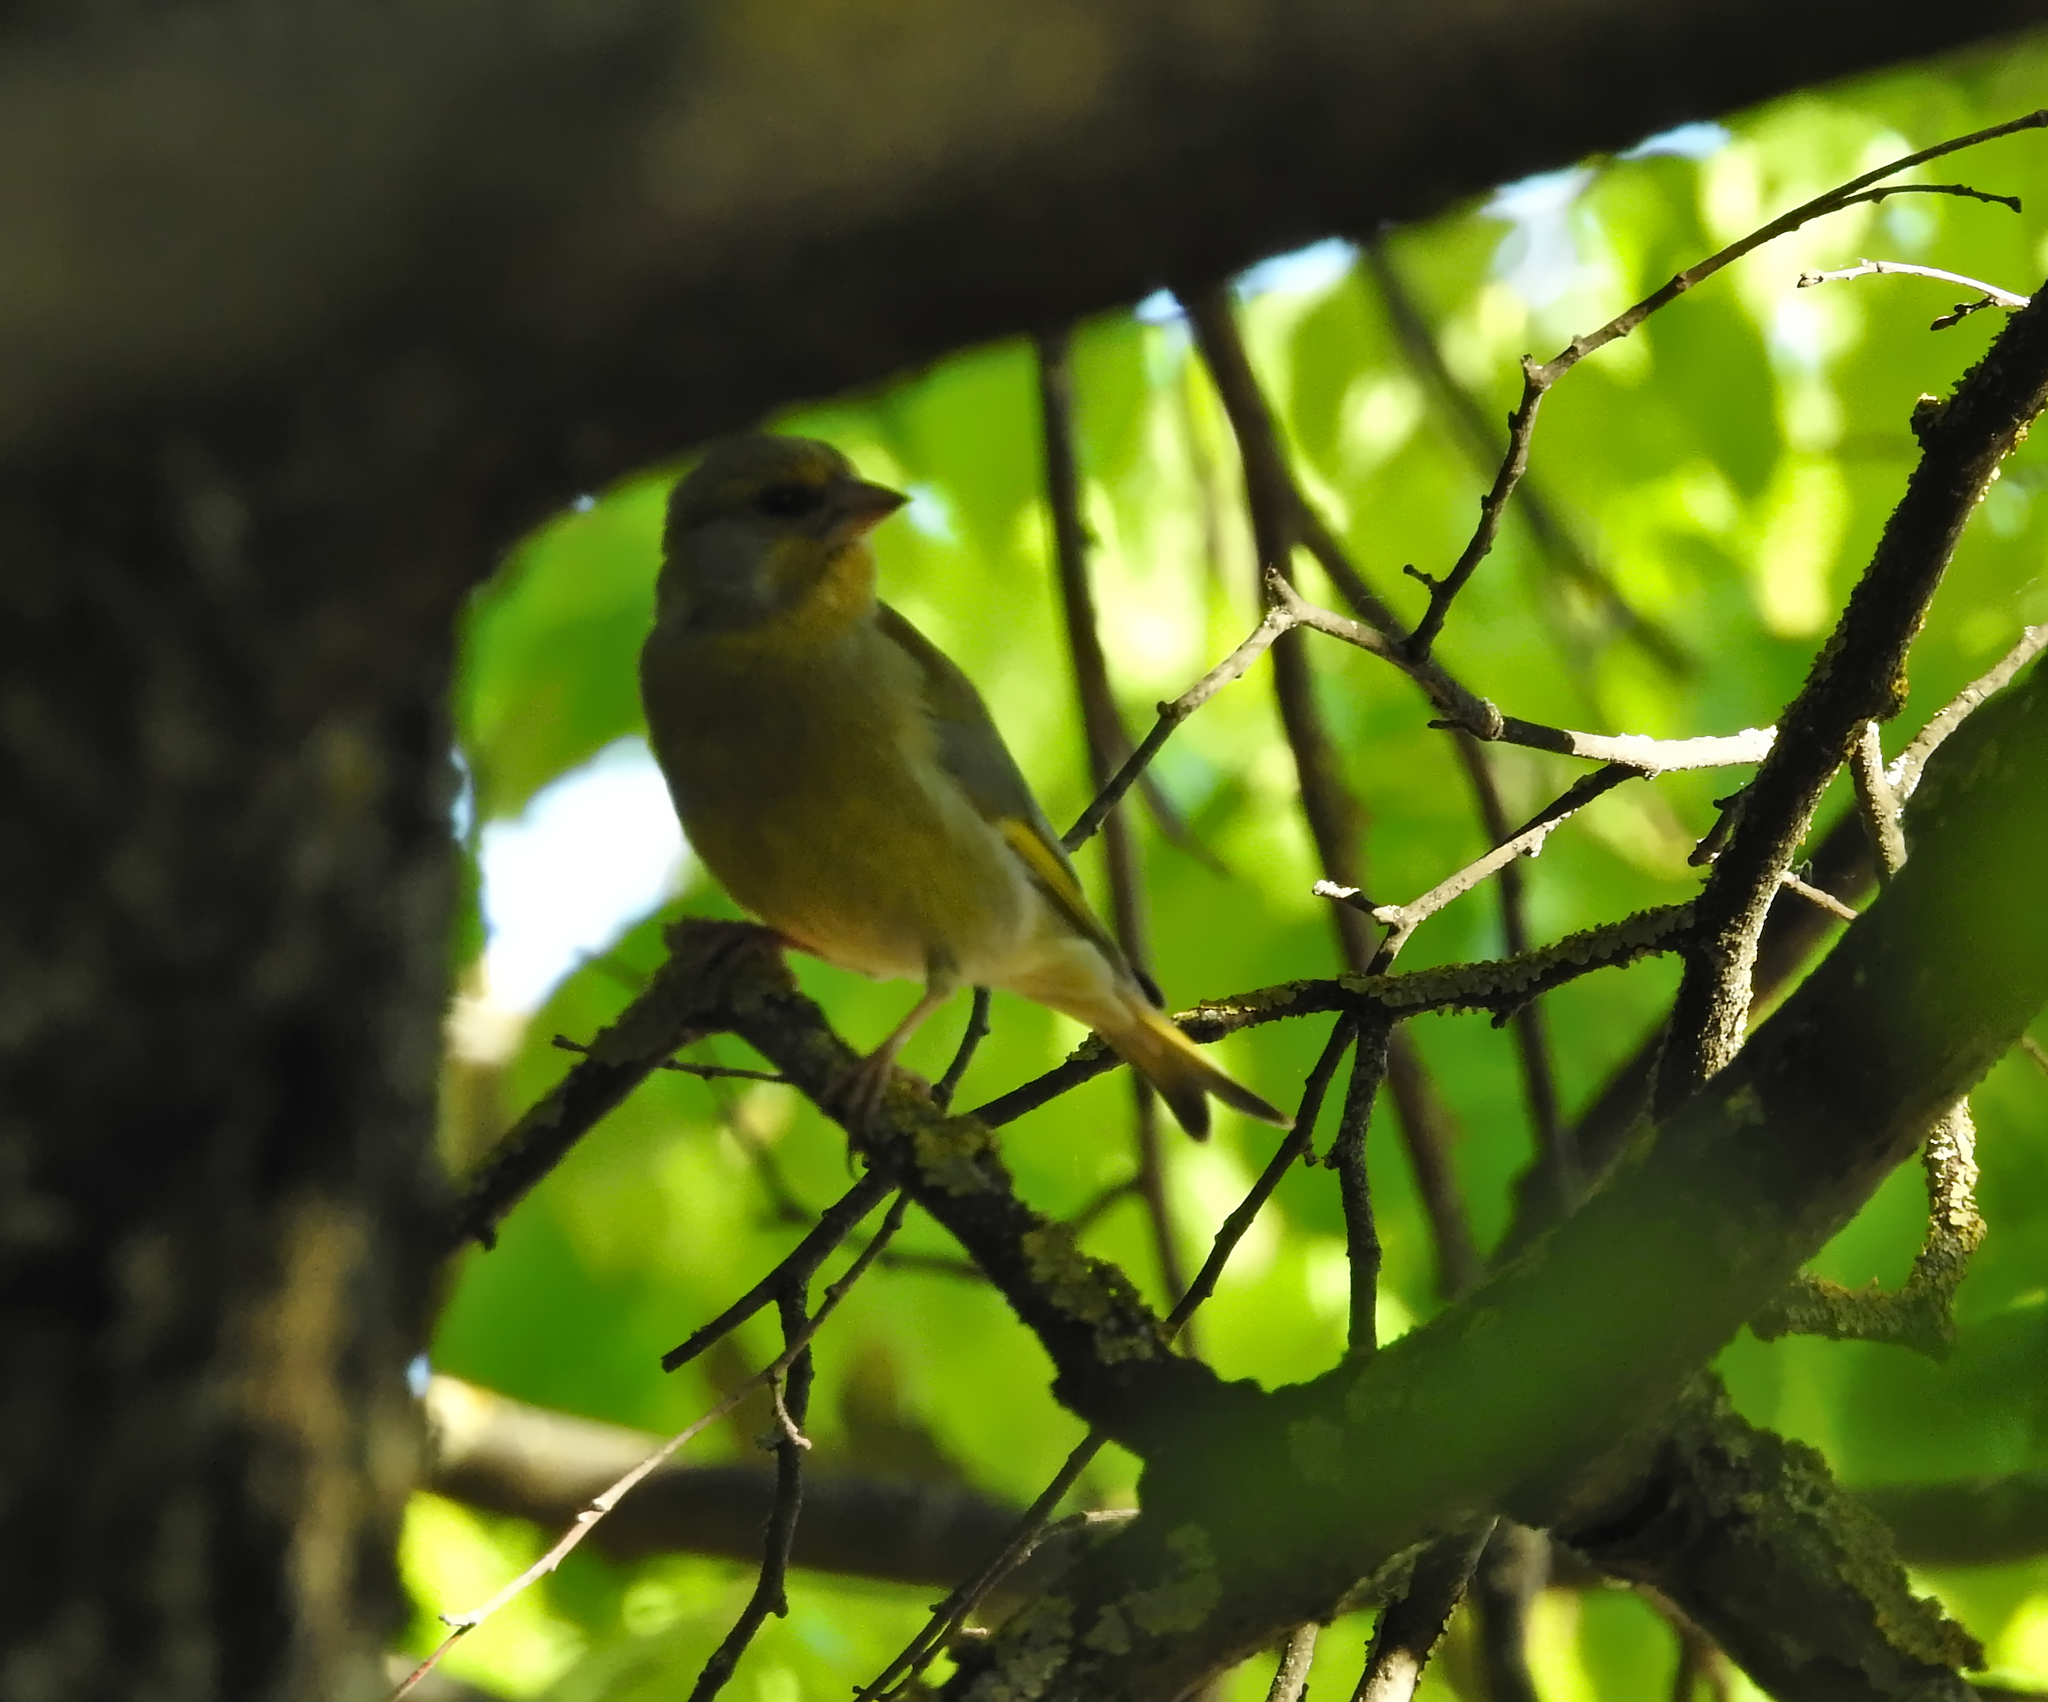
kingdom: Plantae
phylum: Tracheophyta
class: Liliopsida
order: Poales
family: Poaceae
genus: Chloris
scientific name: Chloris chloris
